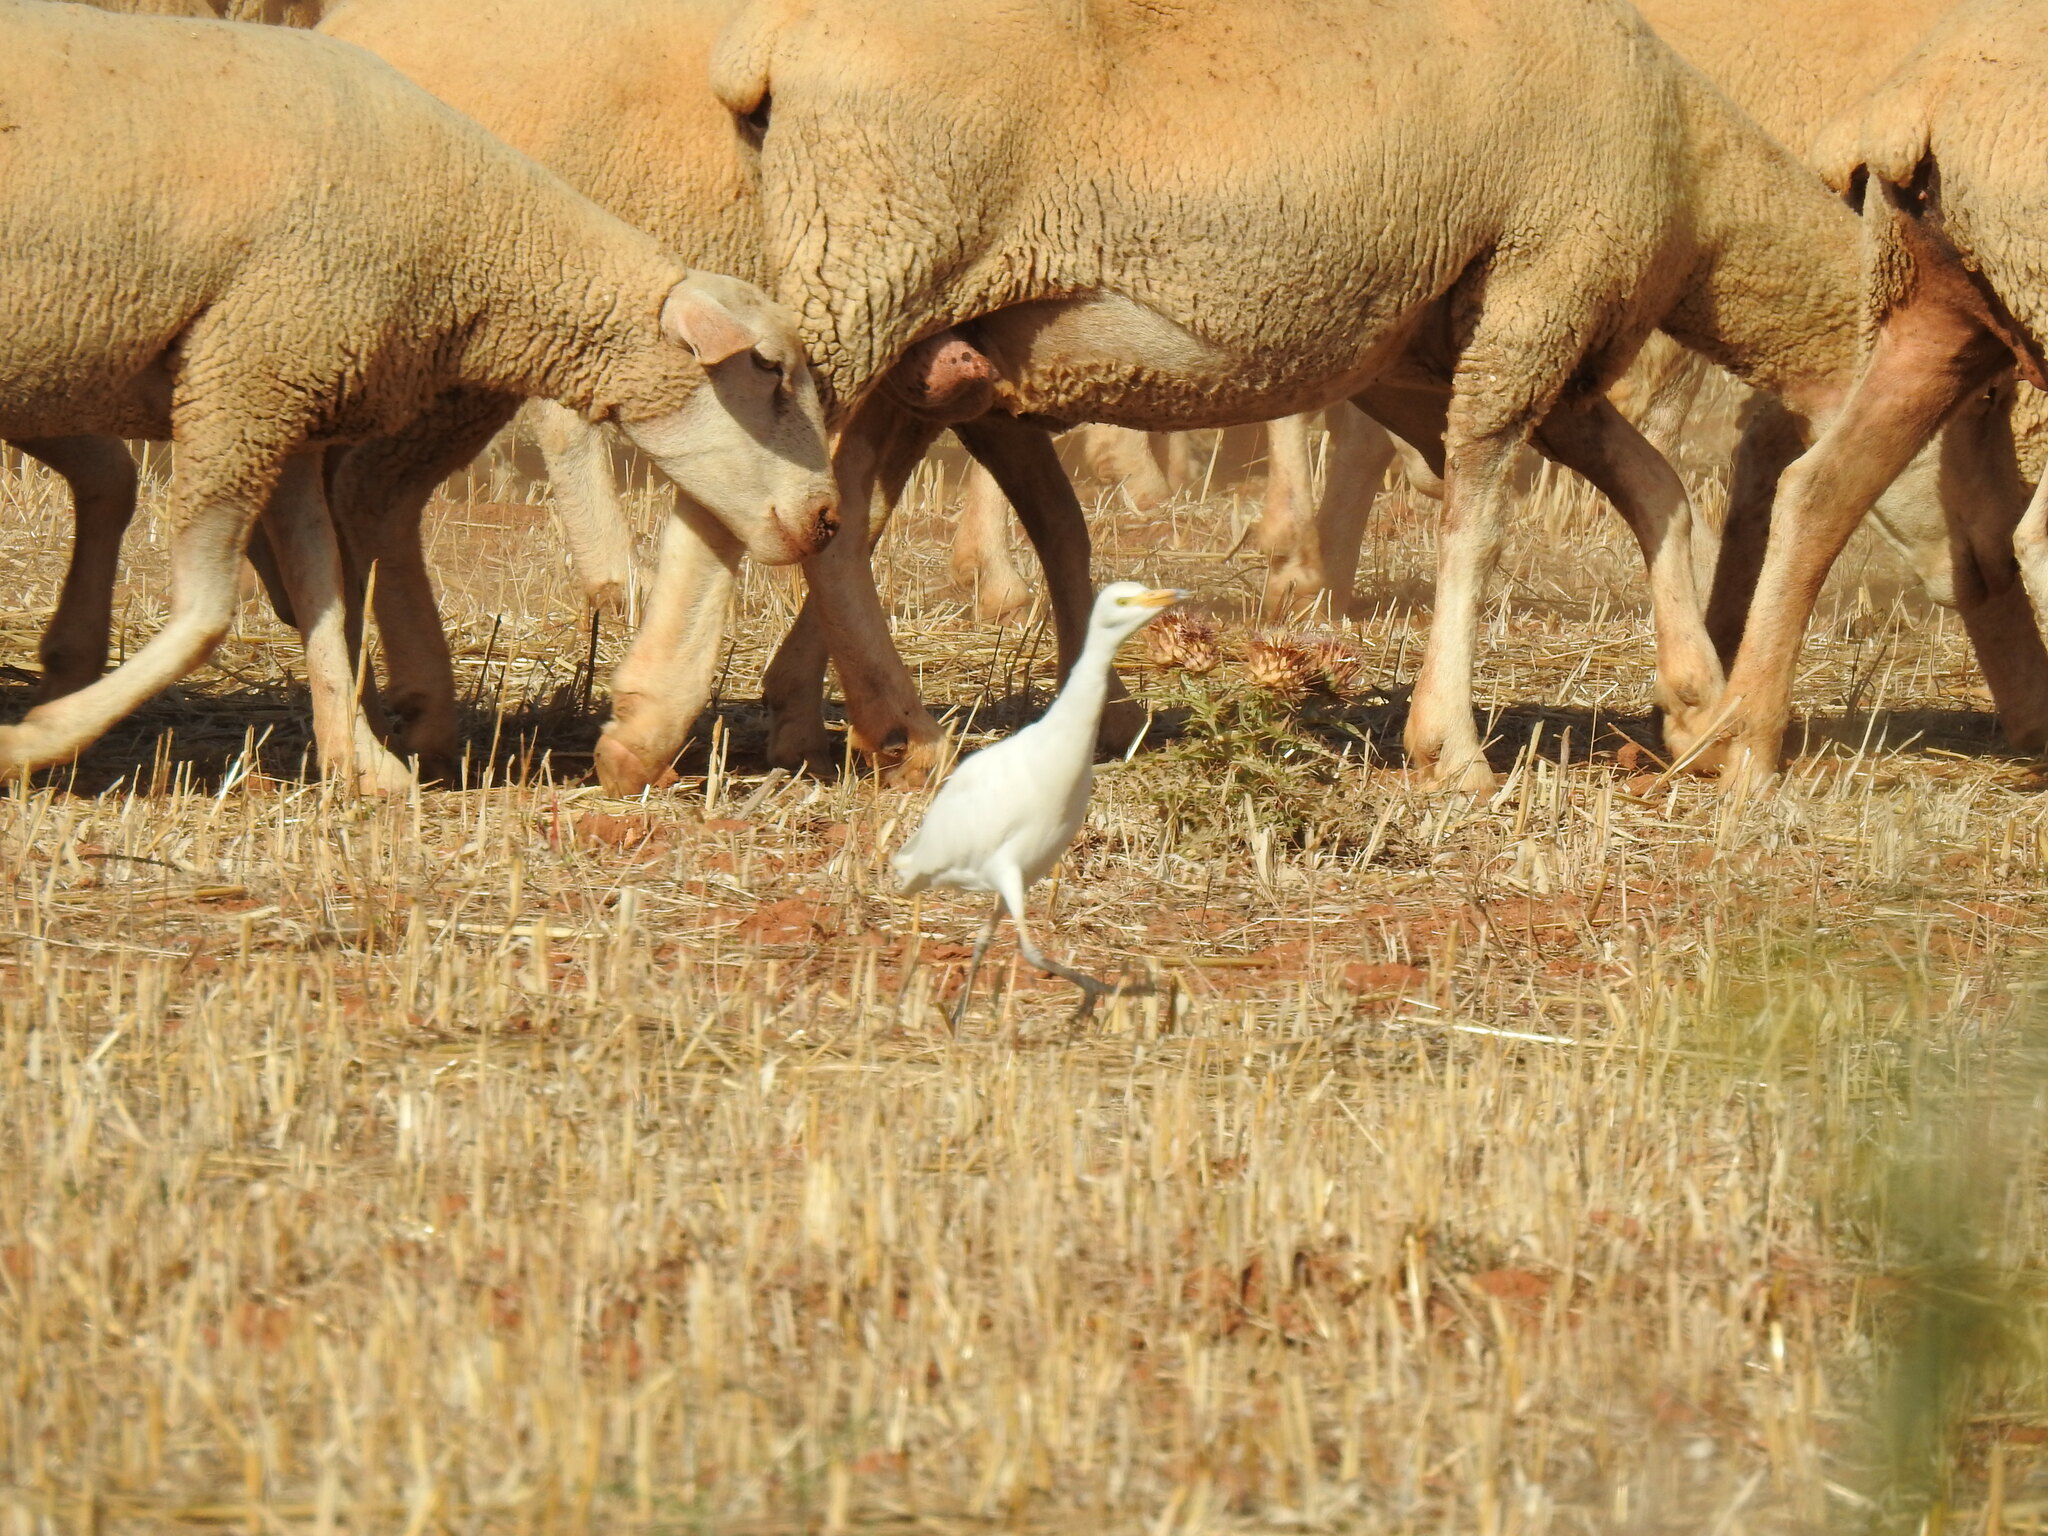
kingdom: Animalia
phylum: Chordata
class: Aves
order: Pelecaniformes
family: Ardeidae
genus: Bubulcus
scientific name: Bubulcus ibis
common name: Cattle egret
